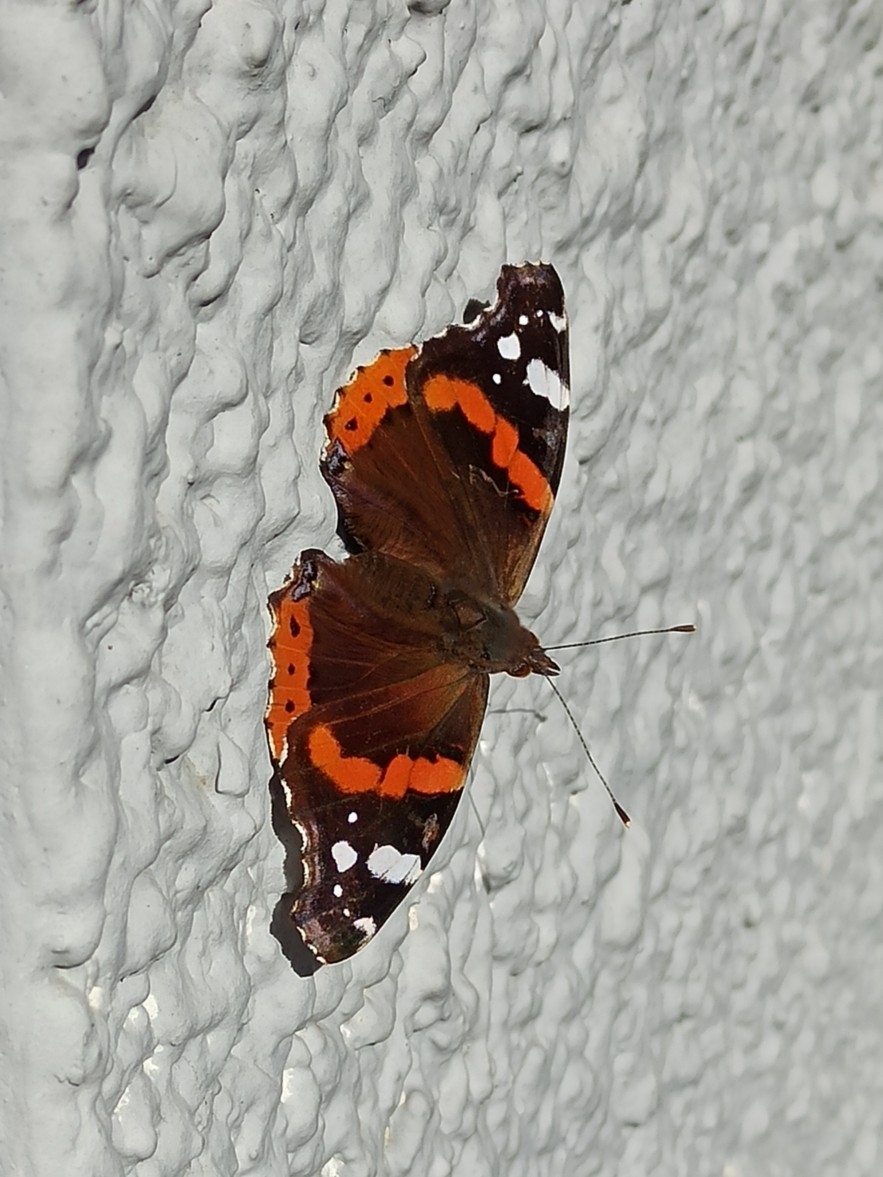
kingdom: Animalia
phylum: Arthropoda
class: Insecta
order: Lepidoptera
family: Nymphalidae
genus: Vanessa
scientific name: Vanessa atalanta
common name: Red admiral
